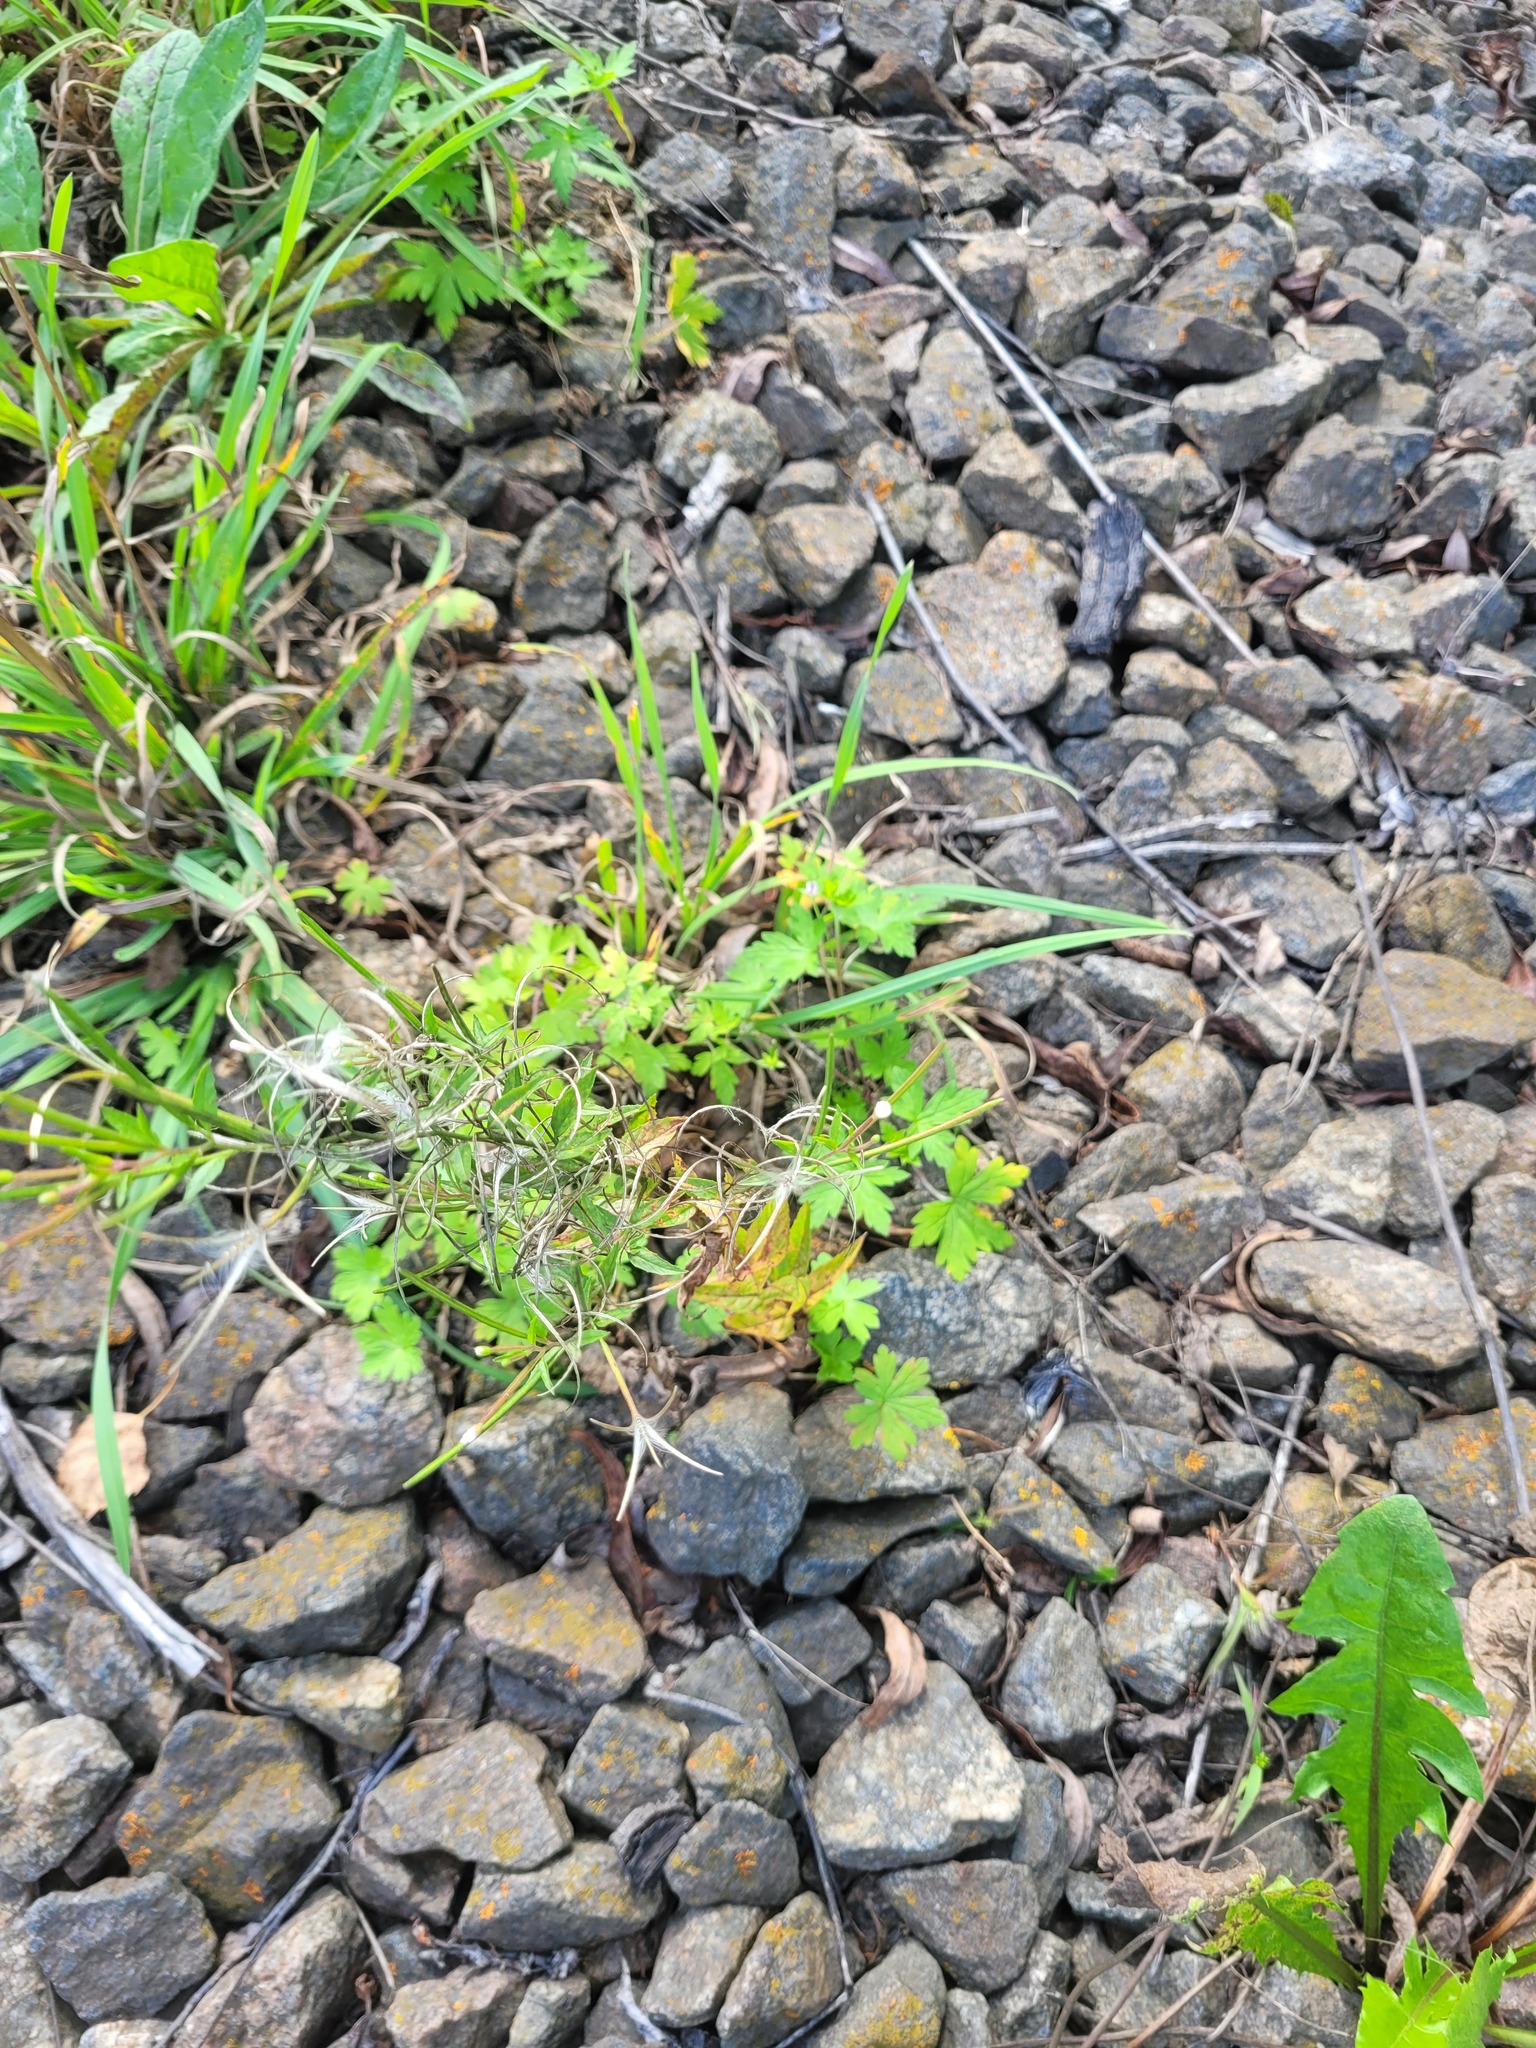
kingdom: Plantae
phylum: Tracheophyta
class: Magnoliopsida
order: Myrtales
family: Onagraceae
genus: Epilobium
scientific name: Epilobium pseudorubescens
